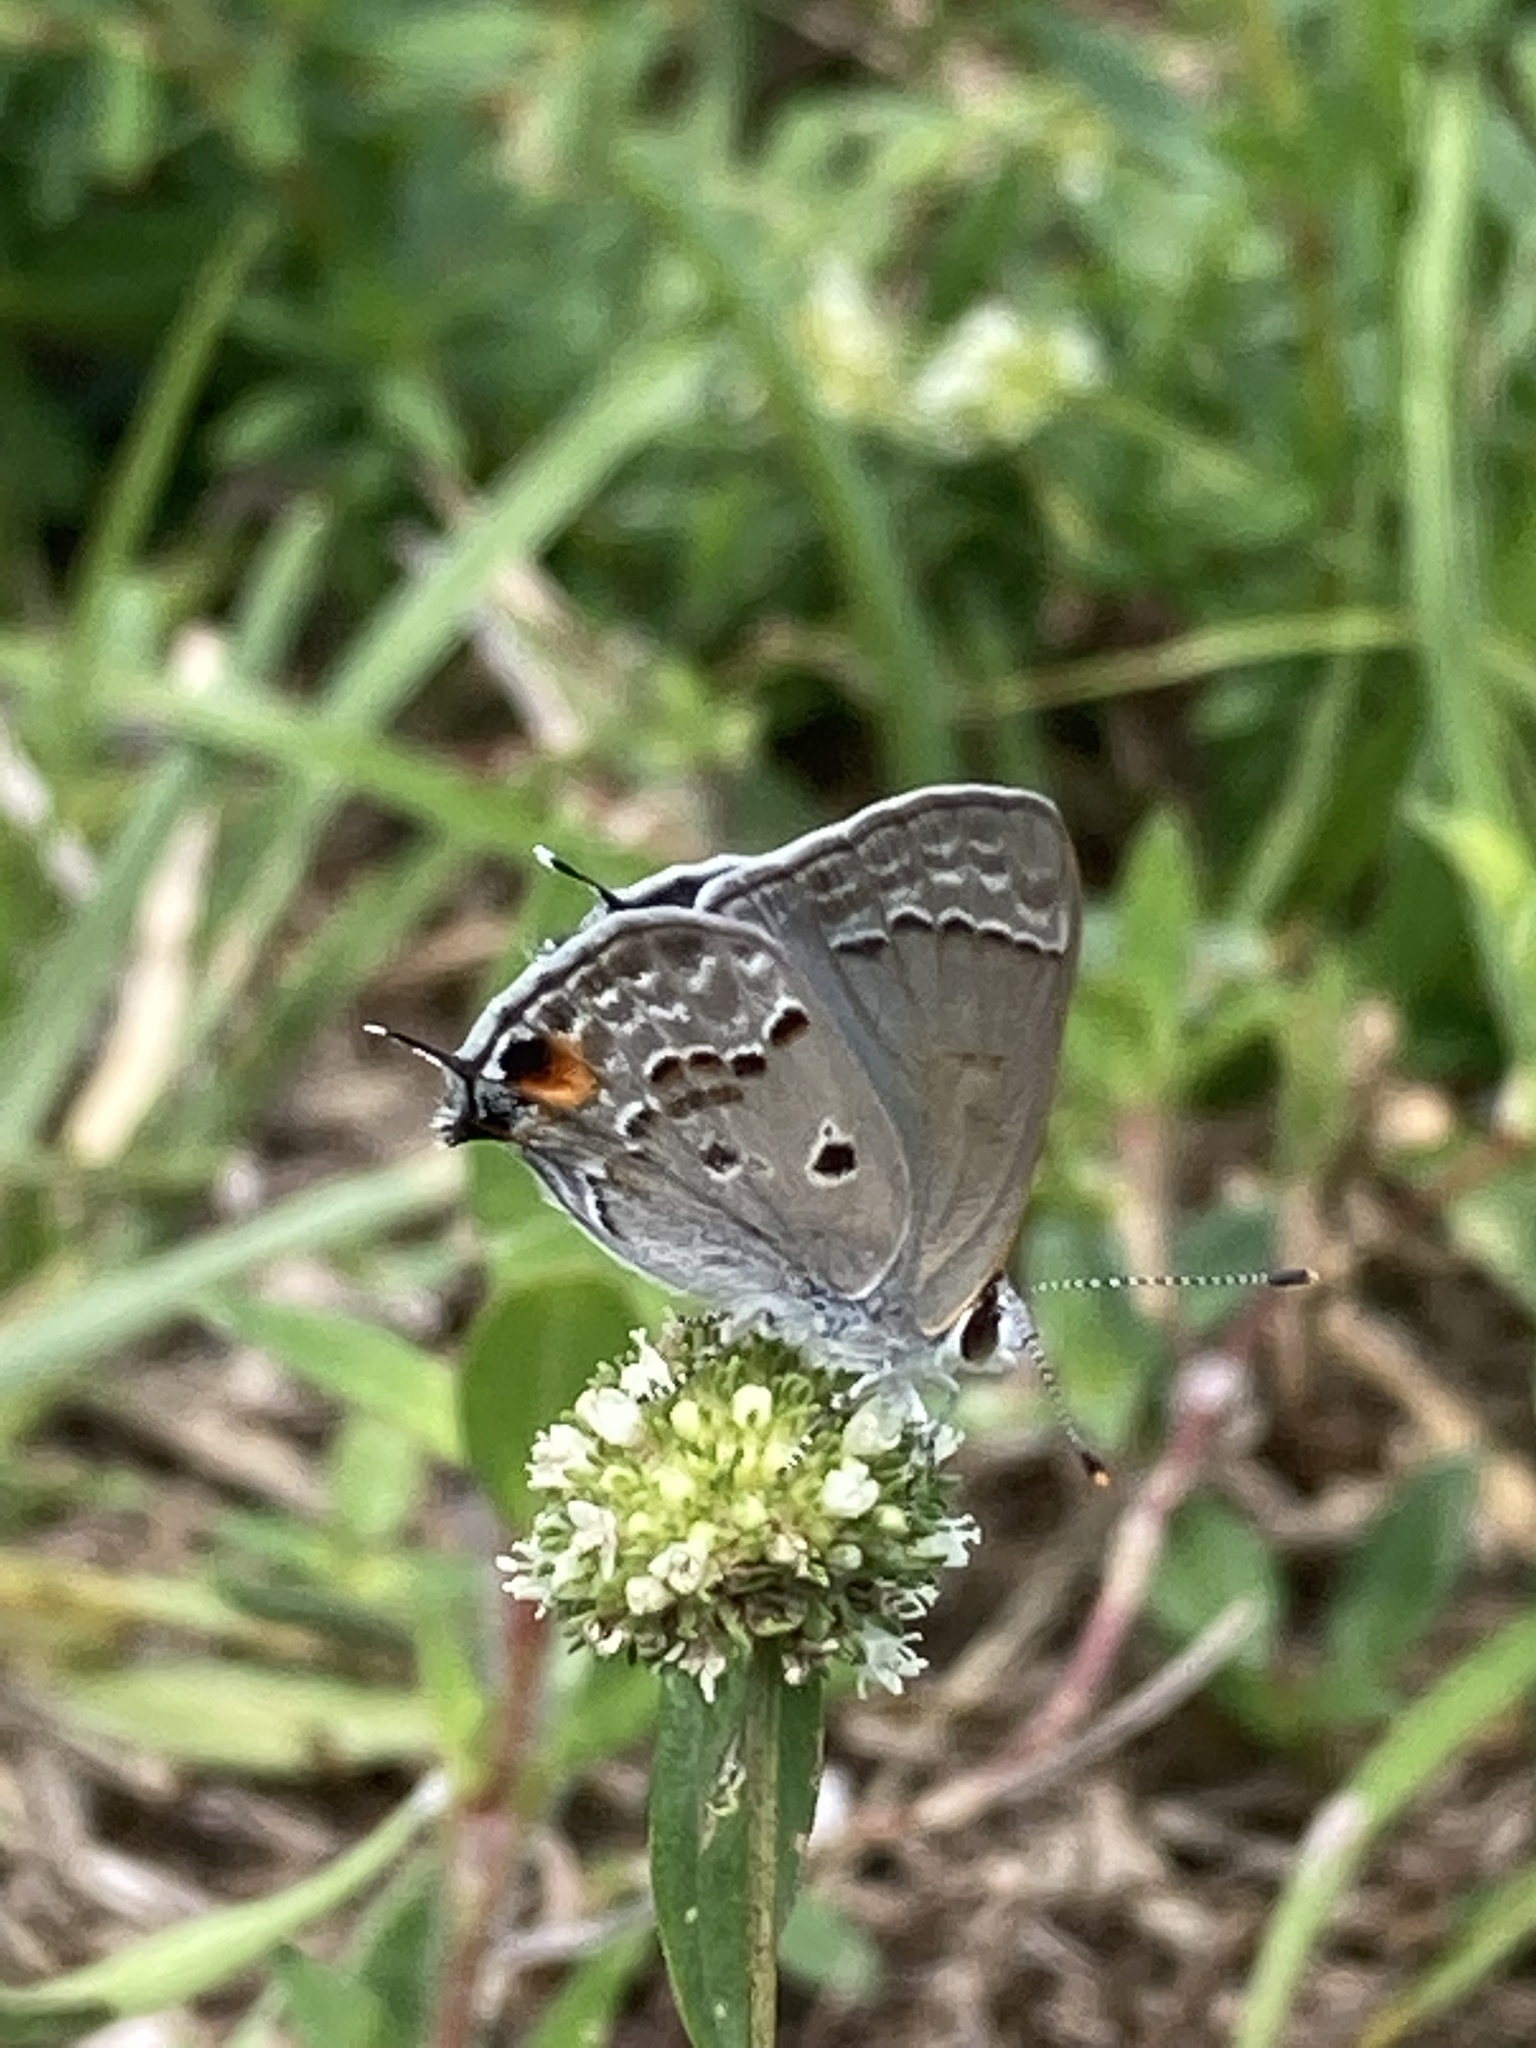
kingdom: Animalia
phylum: Arthropoda
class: Insecta
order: Lepidoptera
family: Lycaenidae
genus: Callicista
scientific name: Callicista columella
